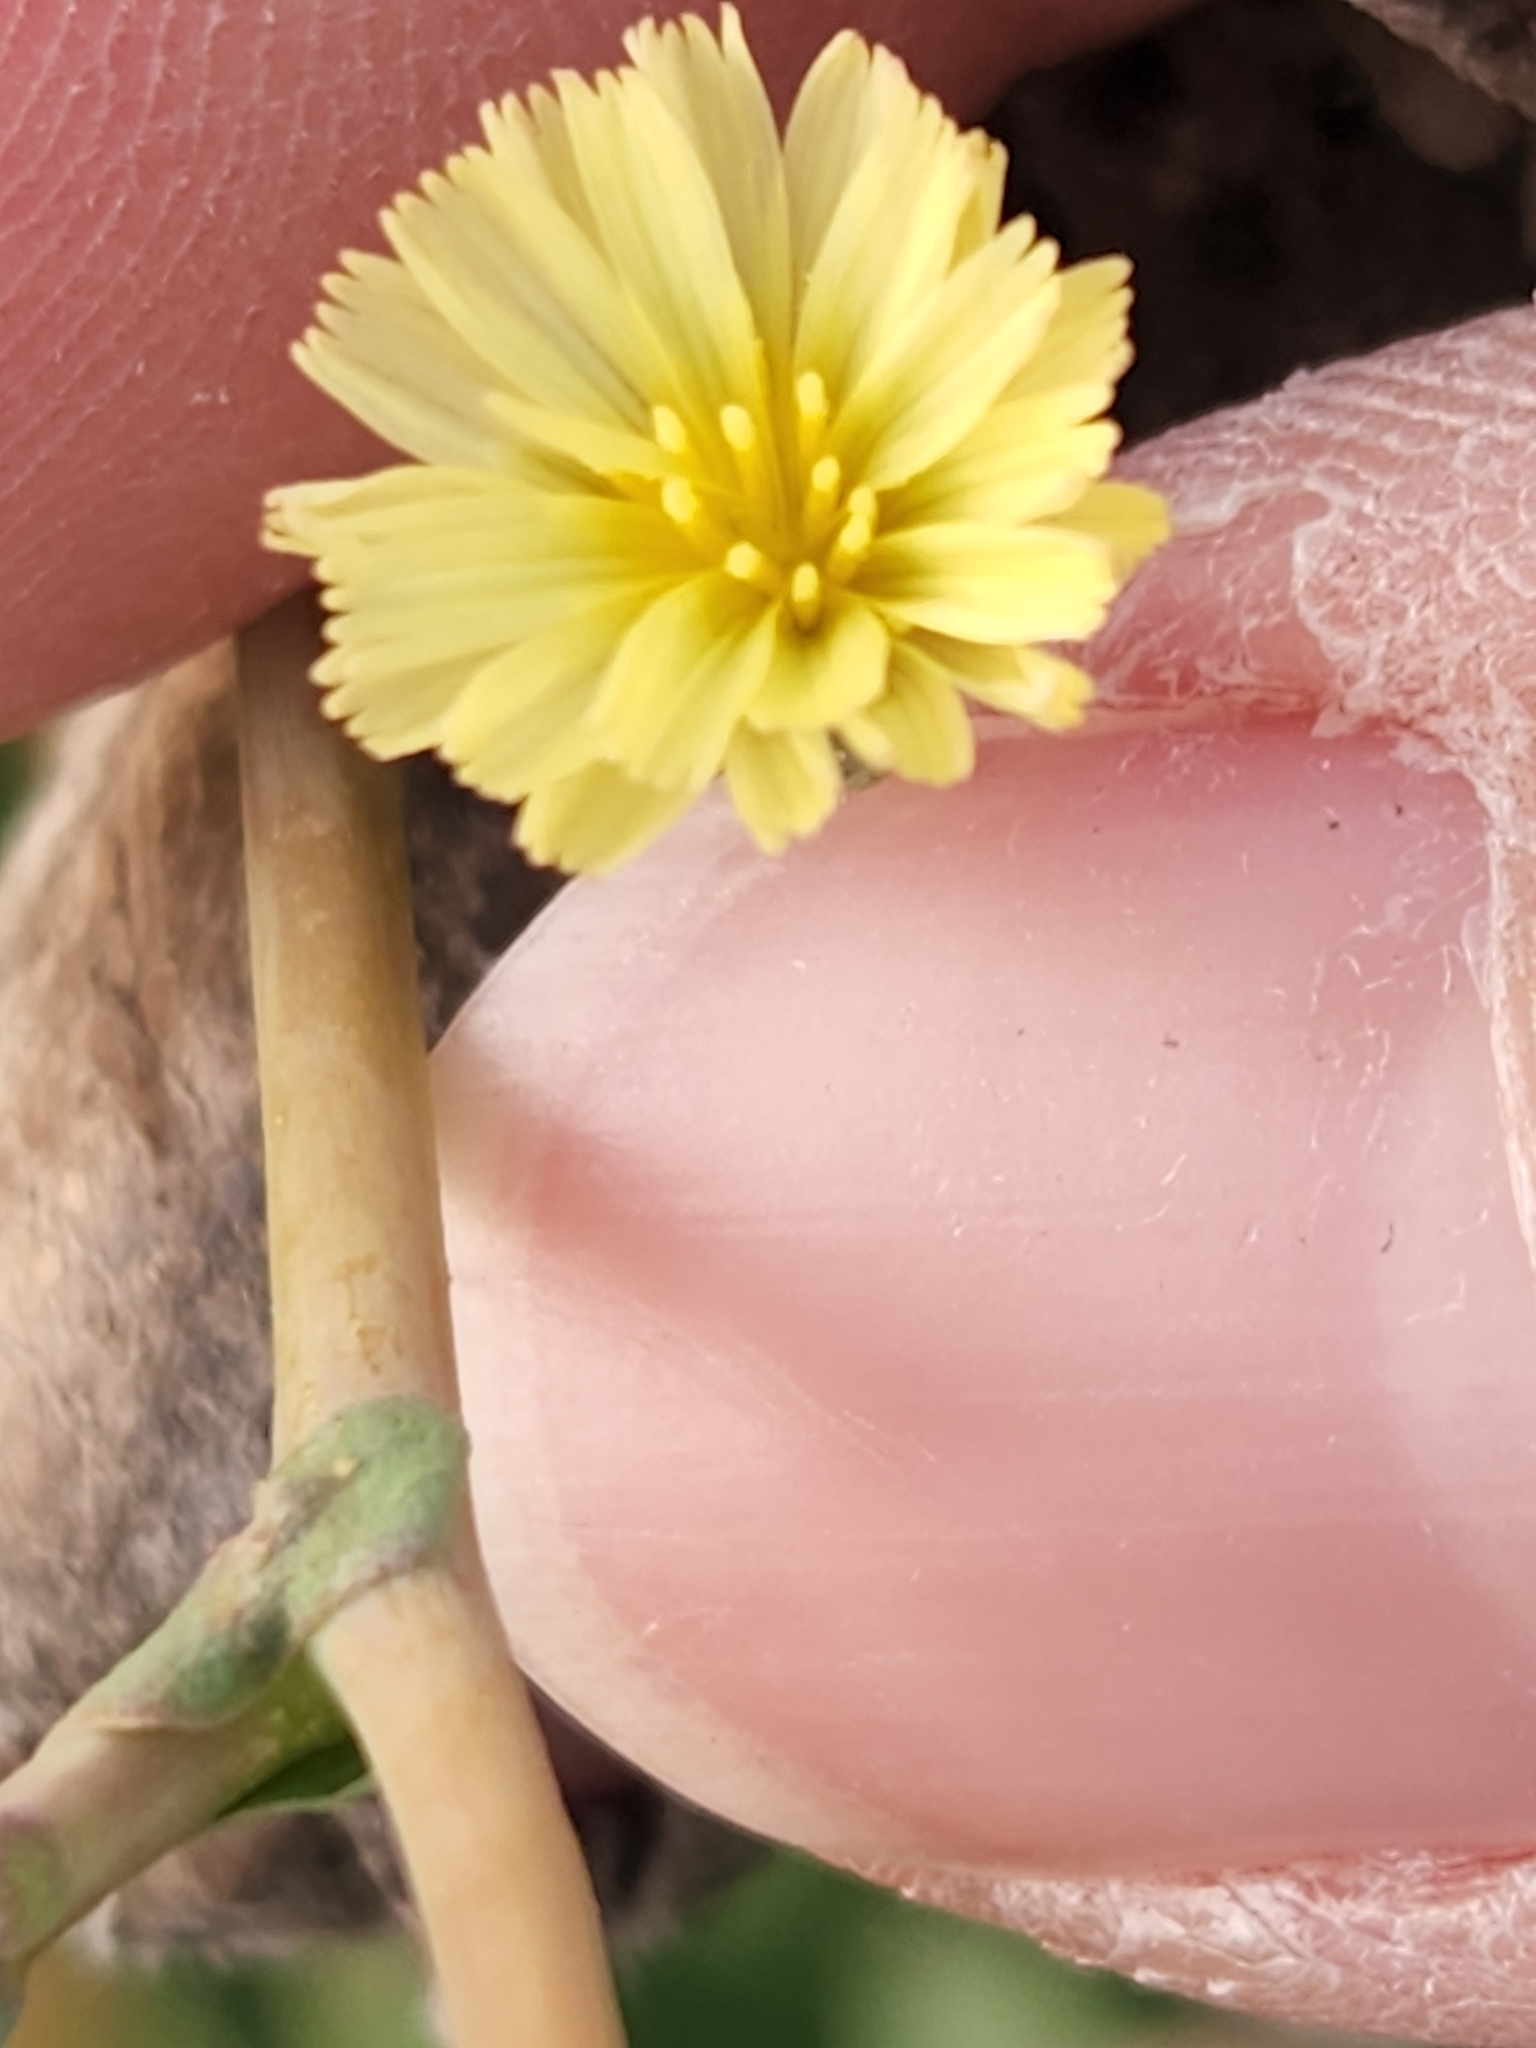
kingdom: Plantae
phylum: Tracheophyta
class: Magnoliopsida
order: Asterales
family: Asteraceae
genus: Lactuca
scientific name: Lactuca serriola
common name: Prickly lettuce
